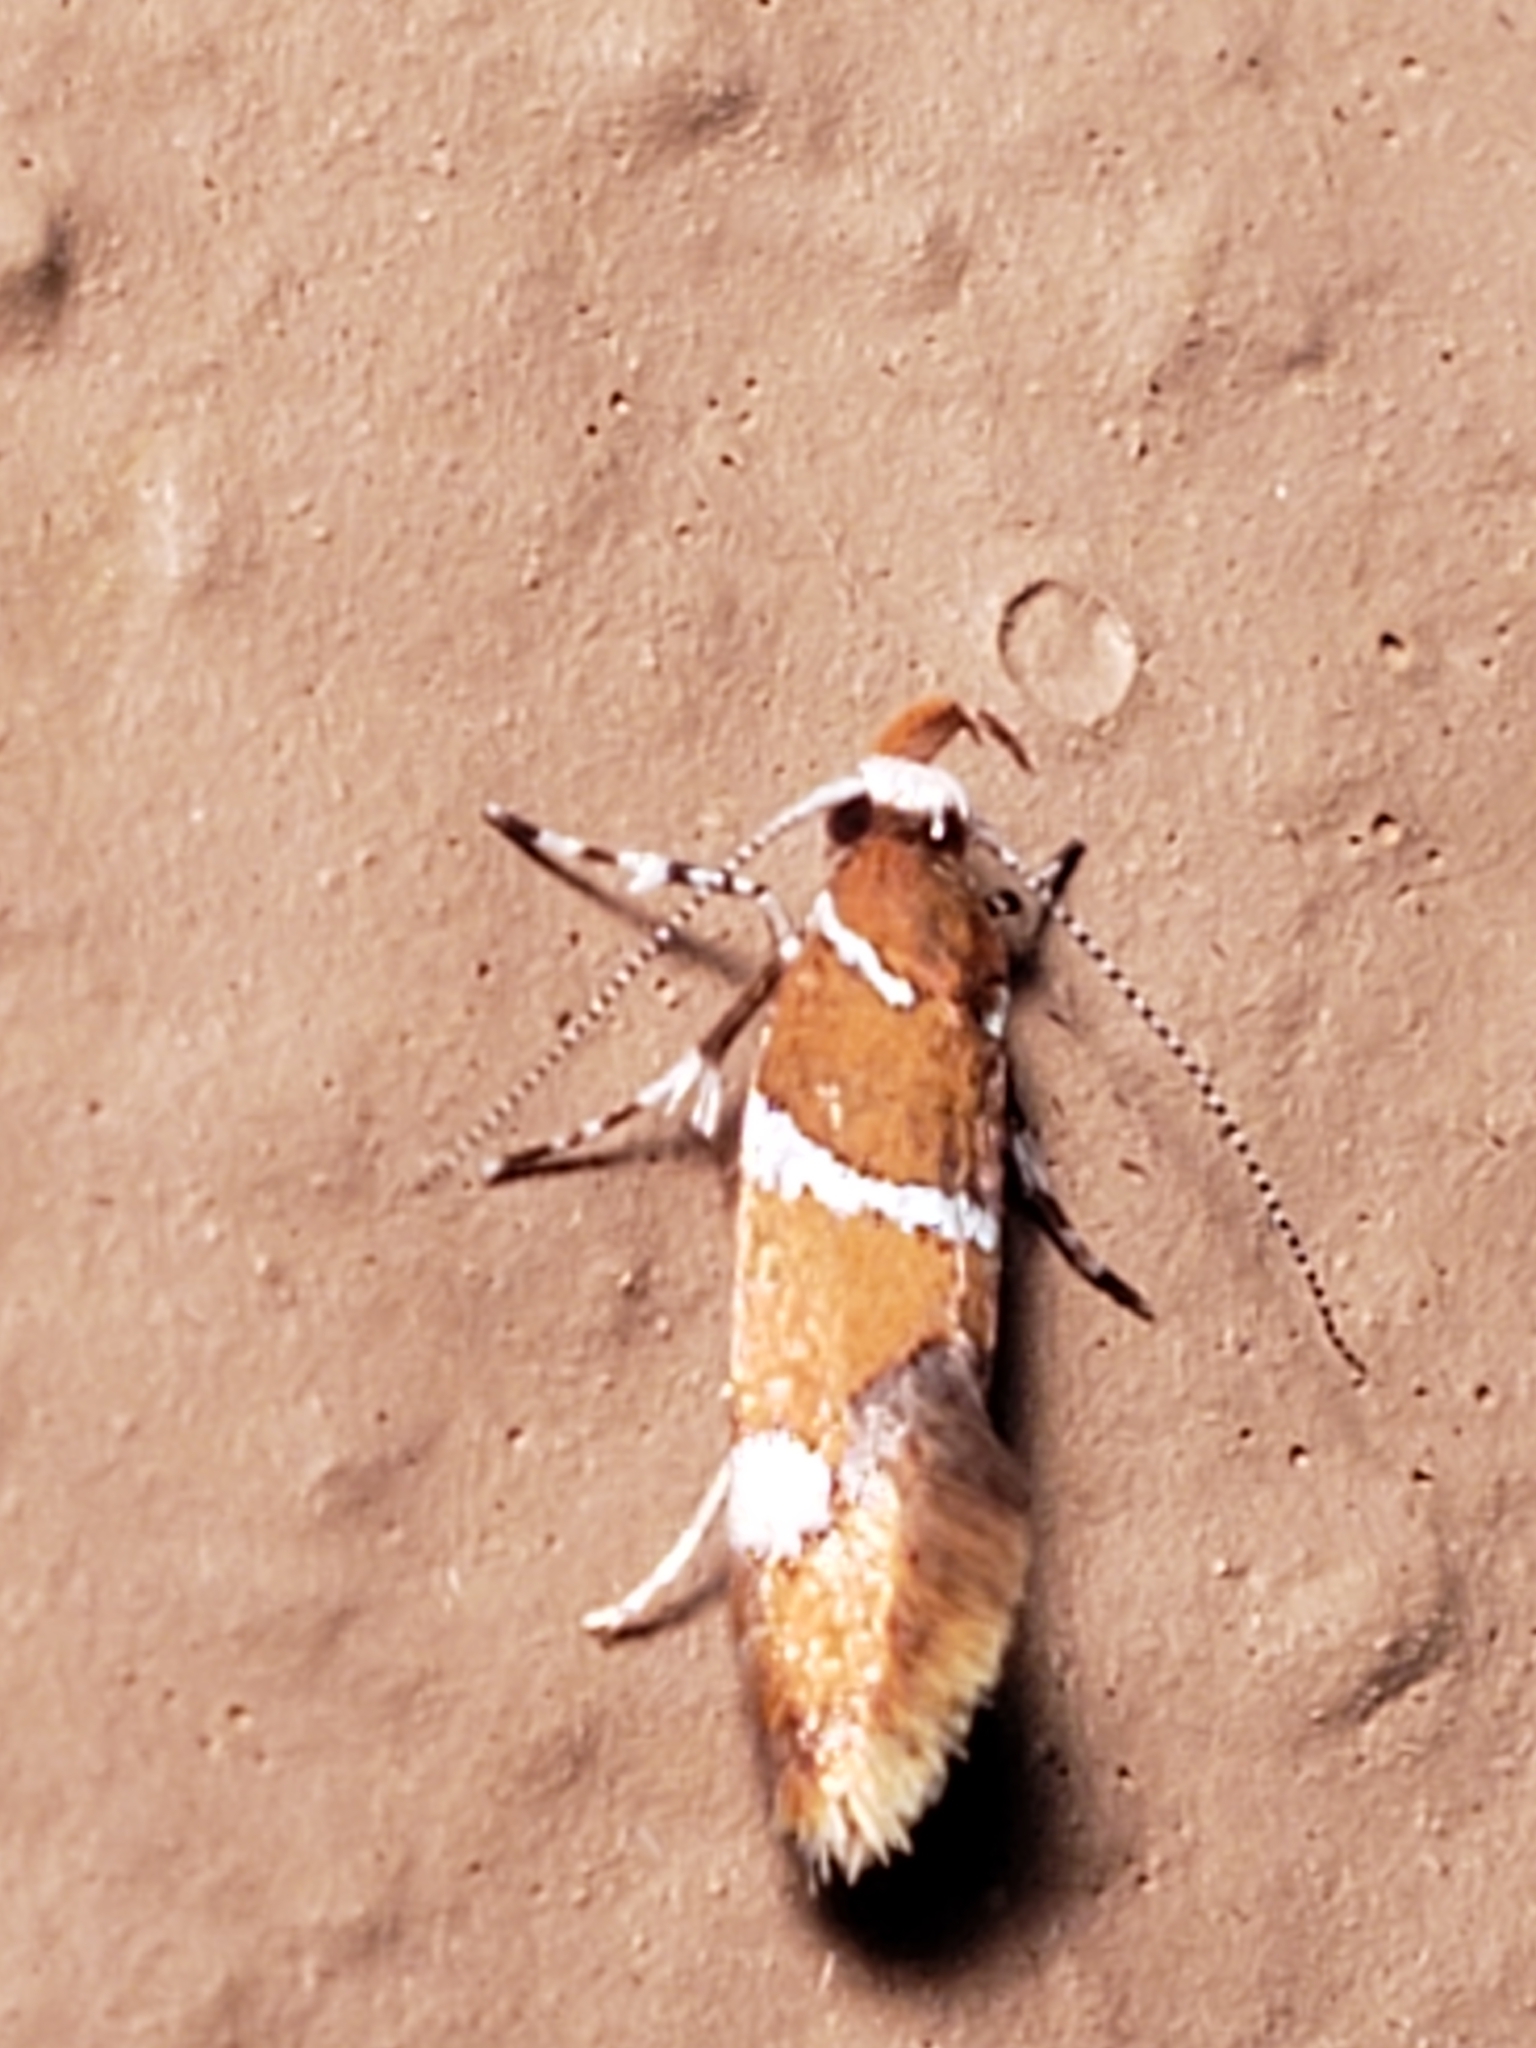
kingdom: Animalia
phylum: Arthropoda
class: Insecta
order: Lepidoptera
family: Oecophoridae
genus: Promalactis
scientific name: Promalactis suzukiella
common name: Moth
